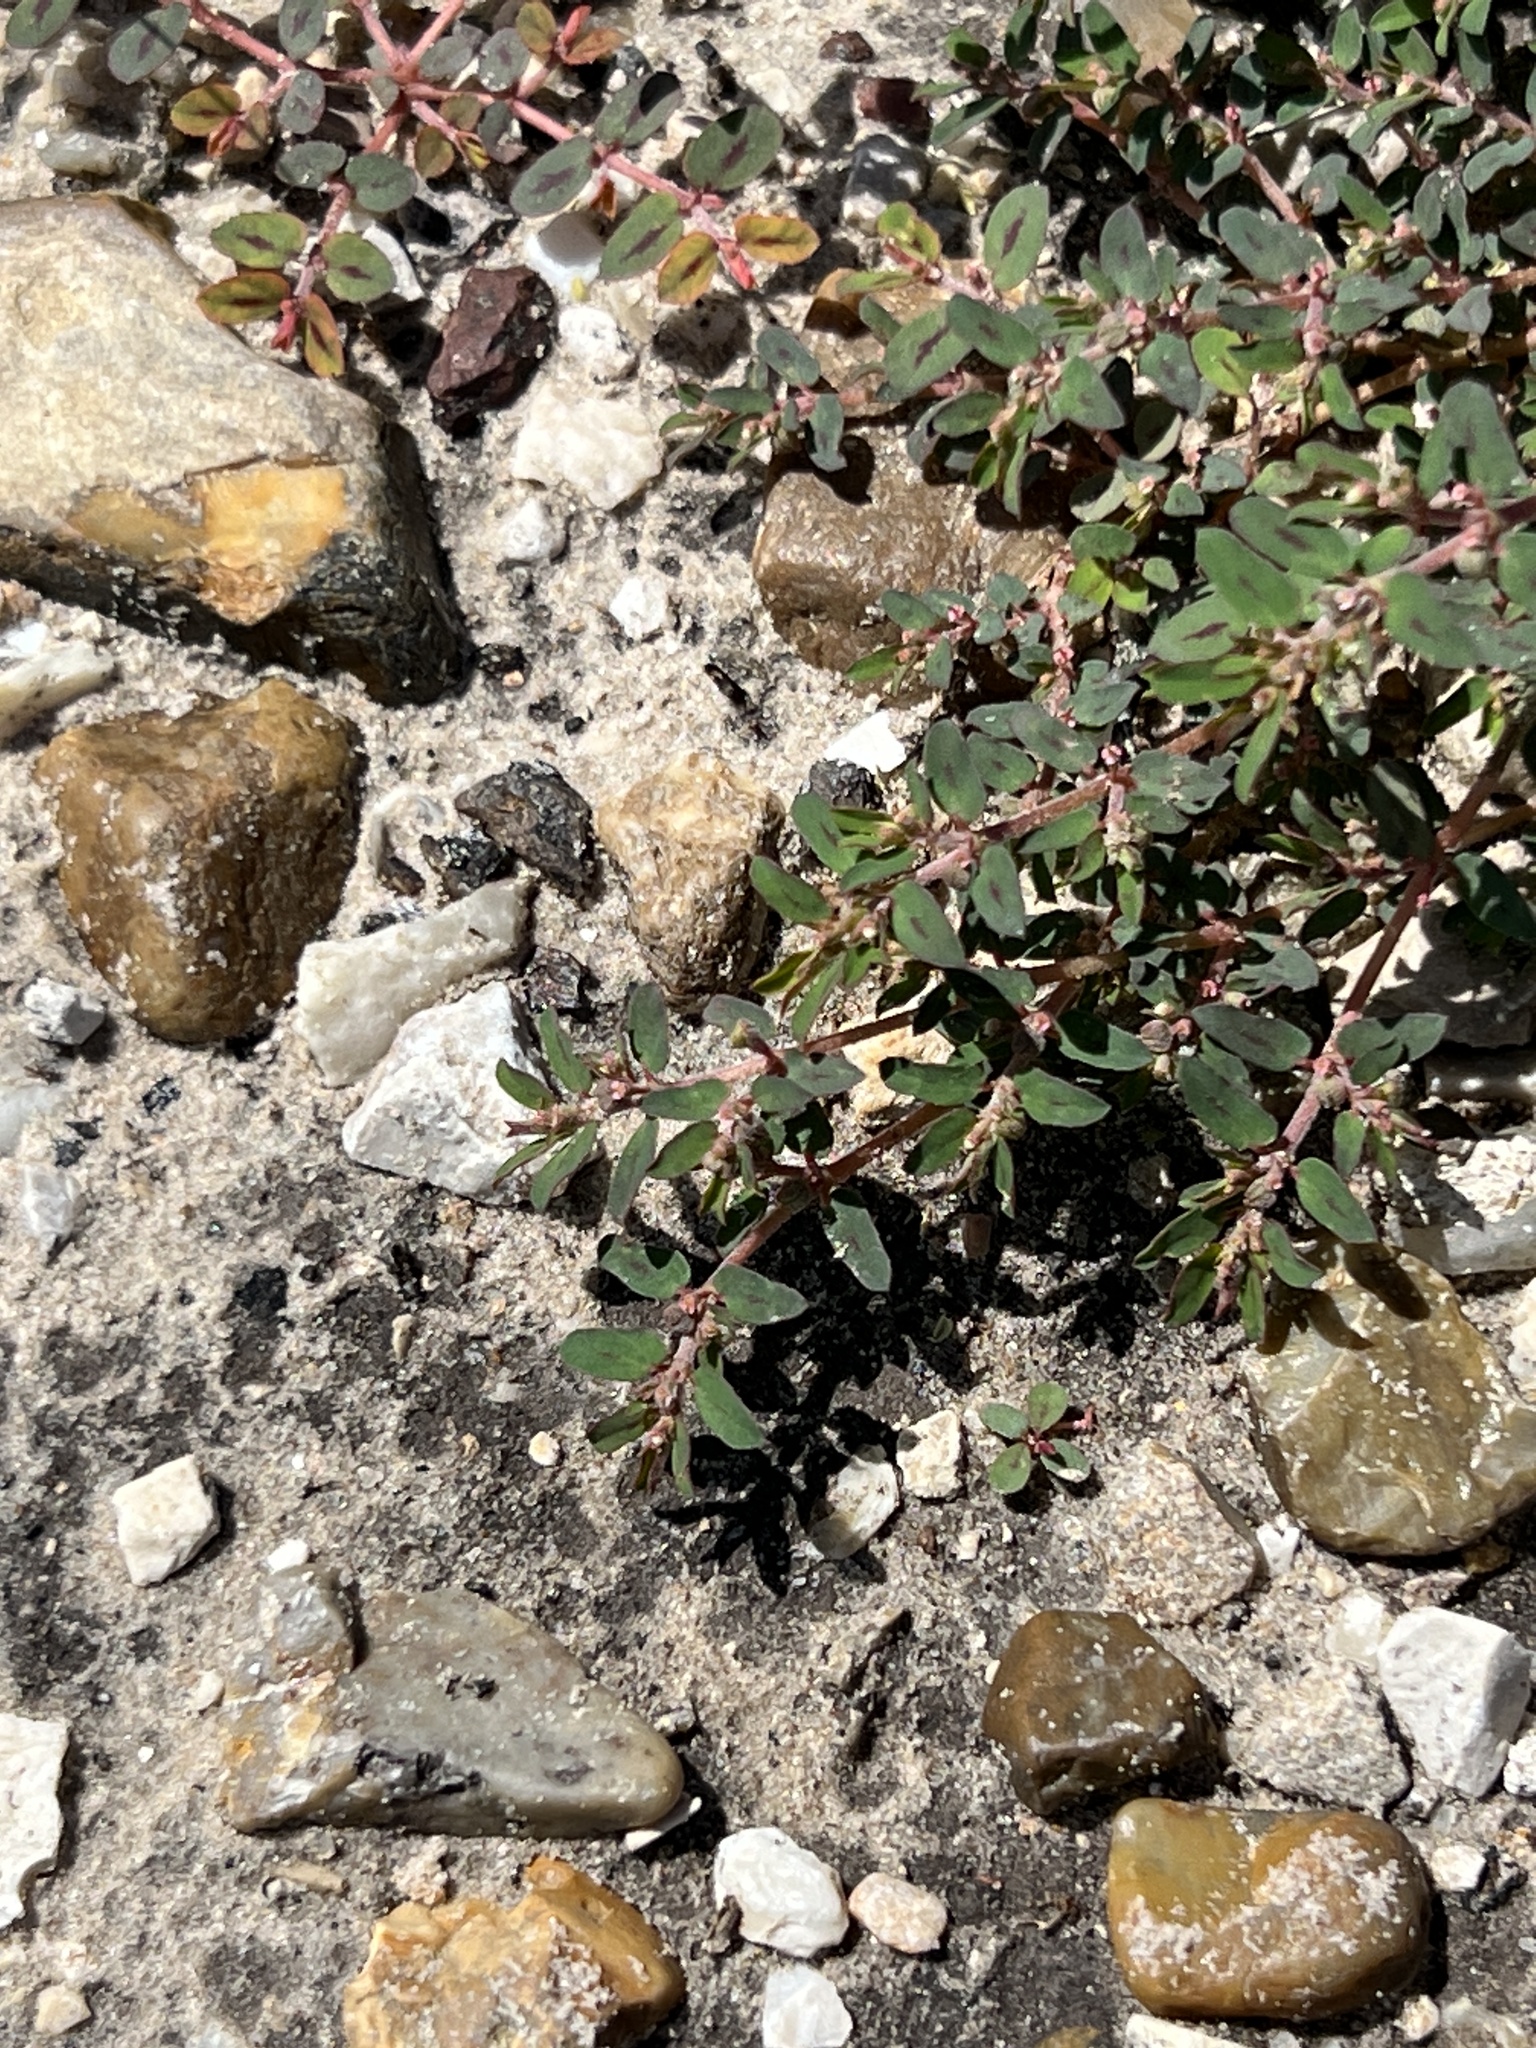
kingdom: Plantae
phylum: Tracheophyta
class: Magnoliopsida
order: Malpighiales
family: Euphorbiaceae
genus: Euphorbia
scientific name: Euphorbia maculata
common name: Spotted spurge
